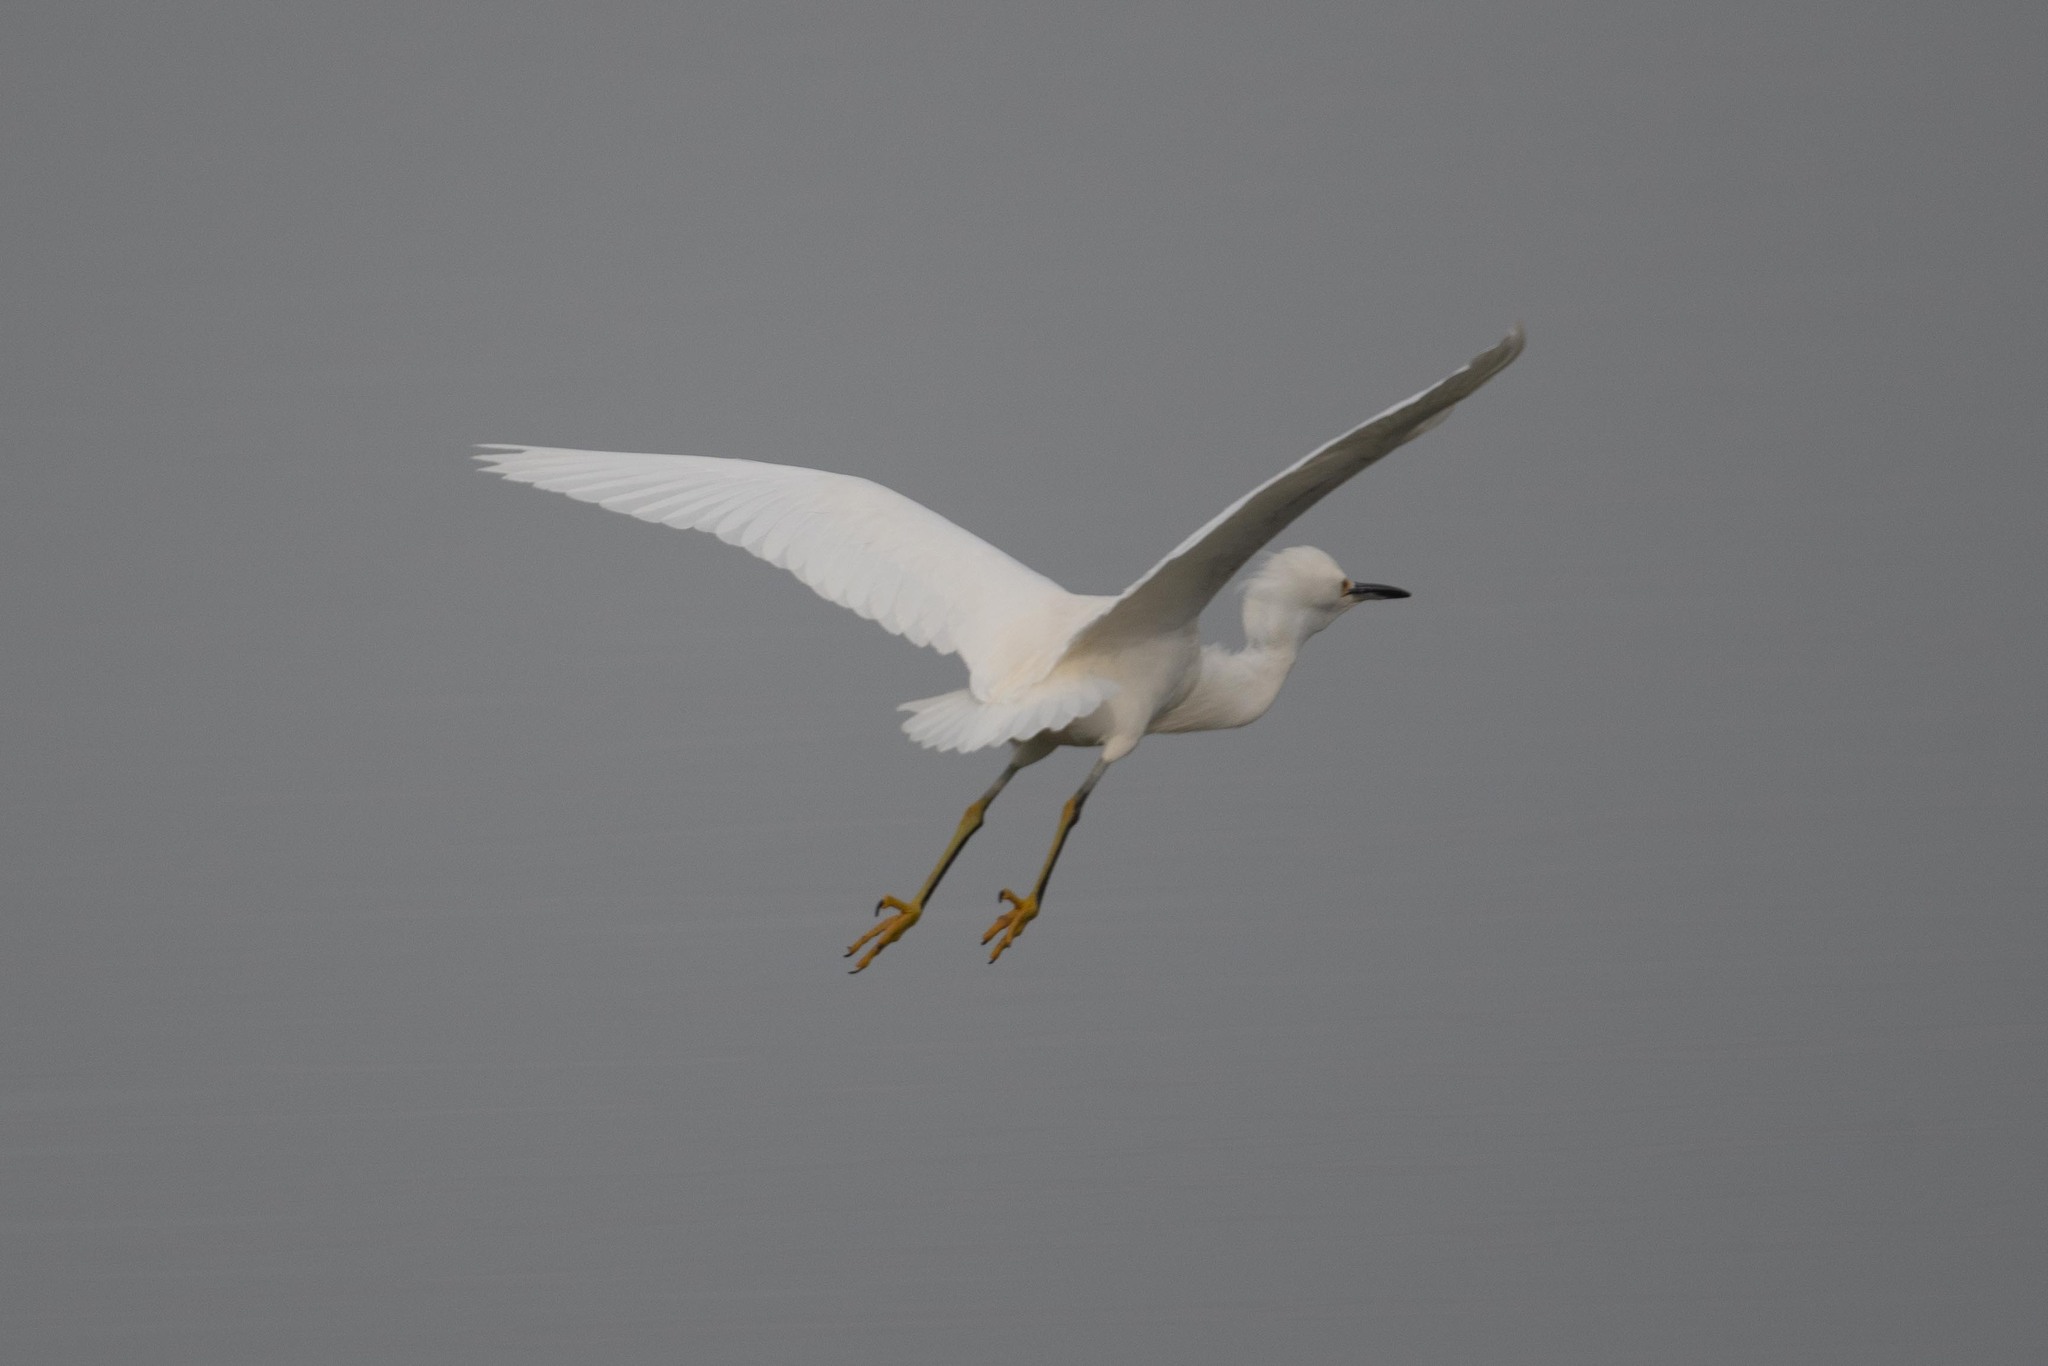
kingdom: Animalia
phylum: Chordata
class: Aves
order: Pelecaniformes
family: Ardeidae
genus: Egretta
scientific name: Egretta thula
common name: Snowy egret
